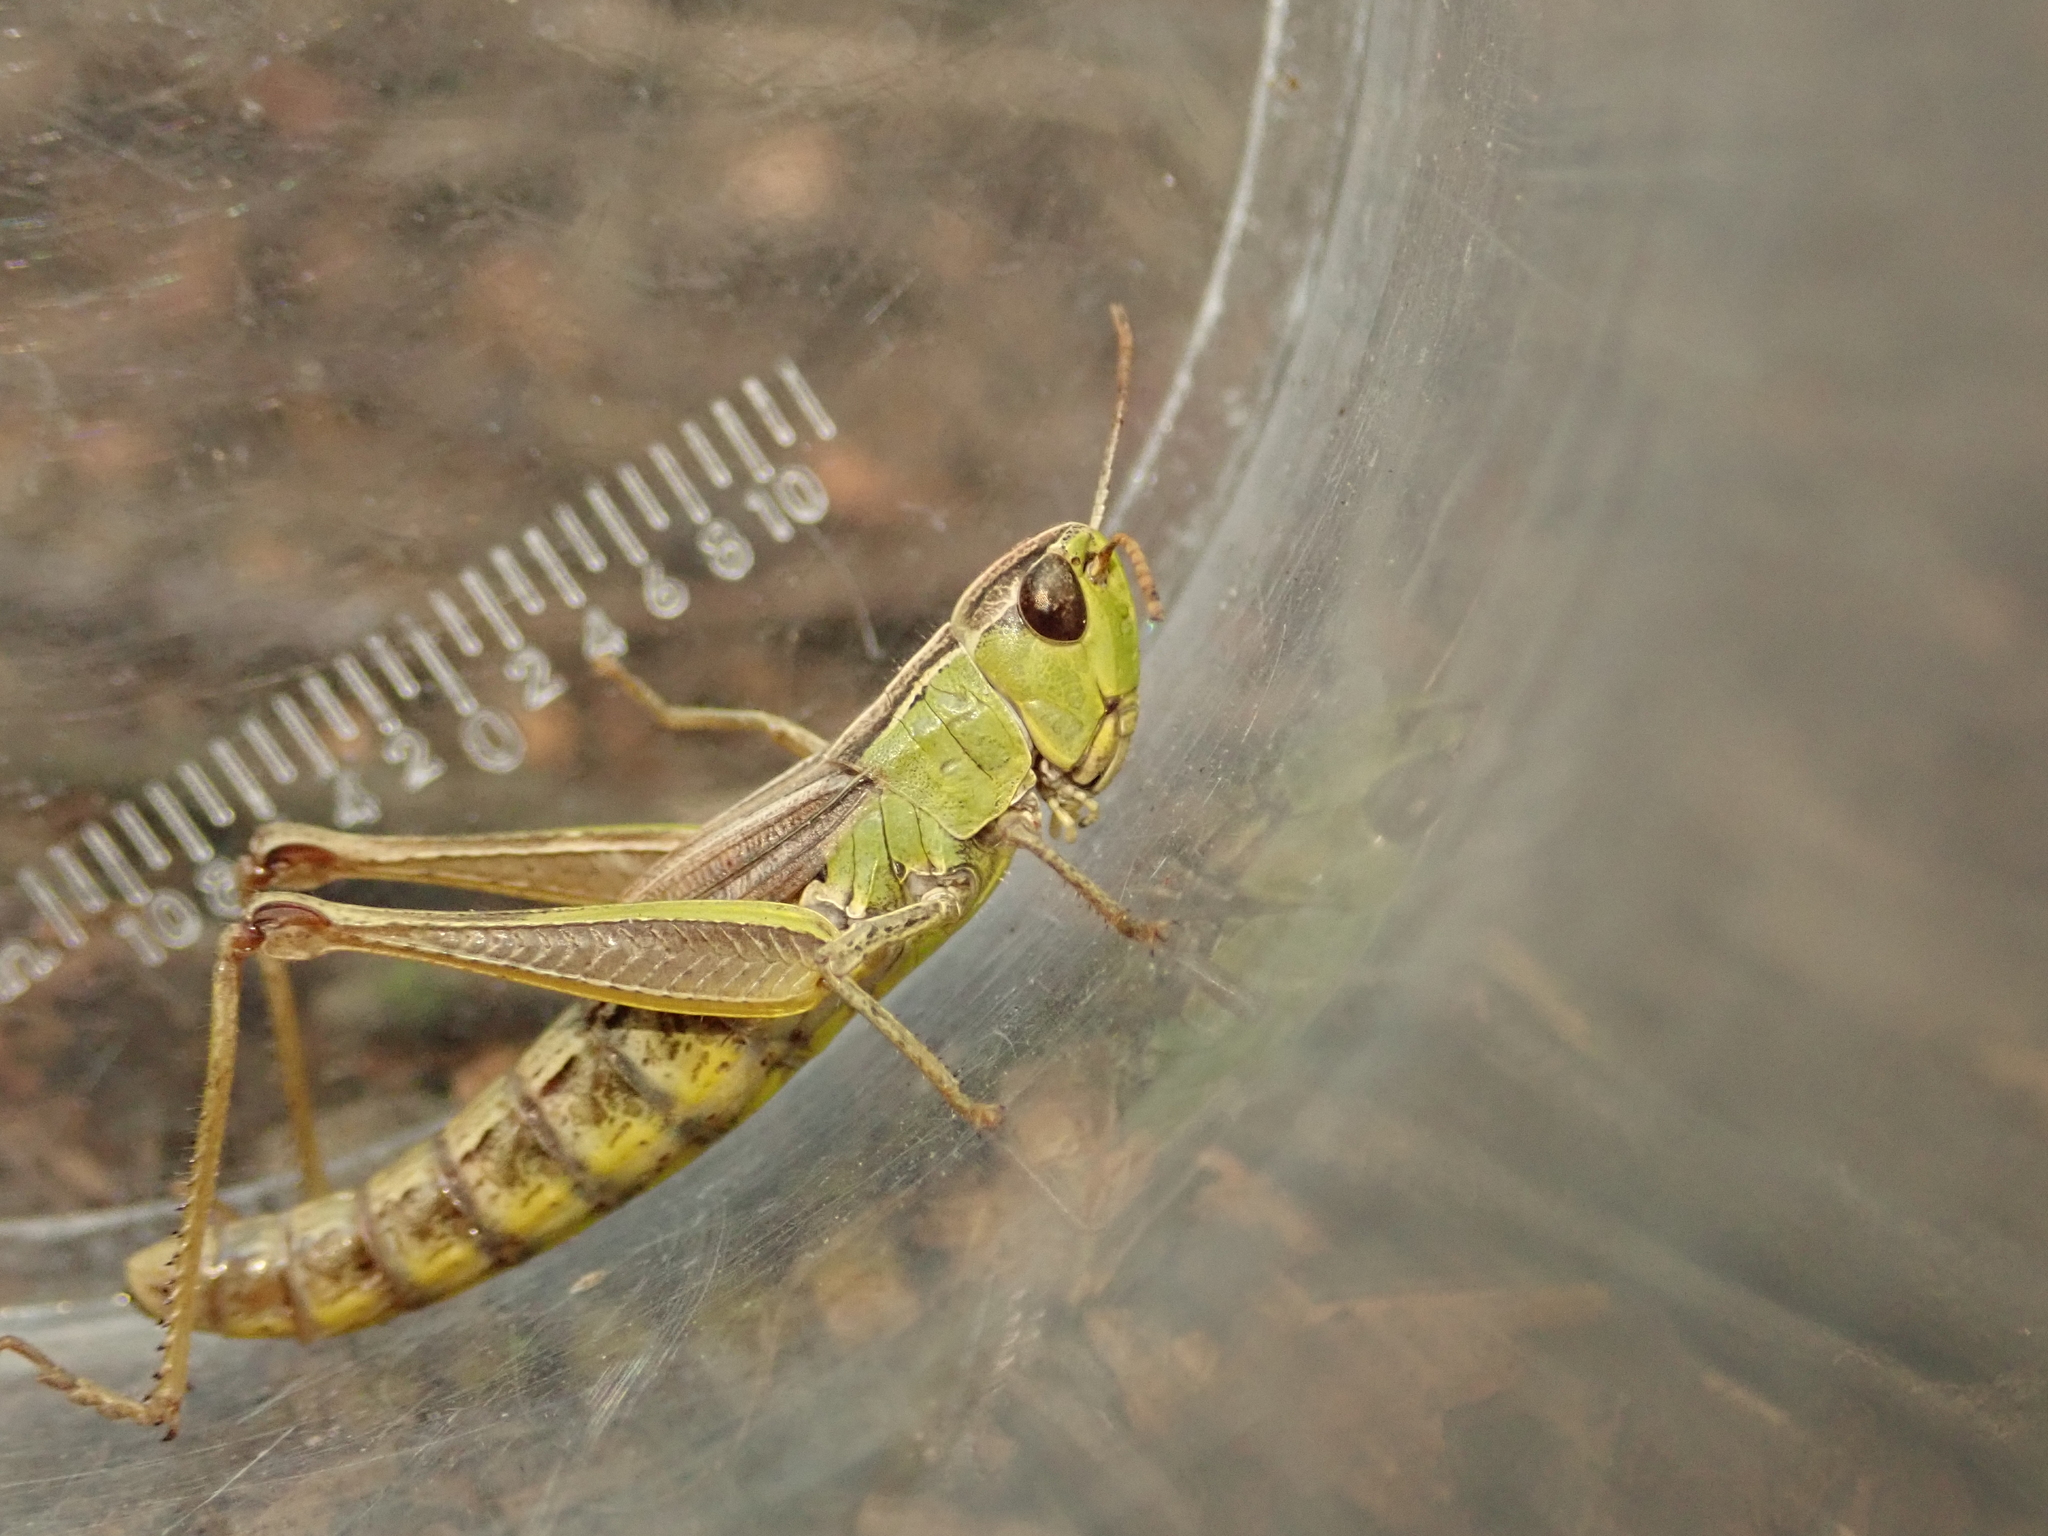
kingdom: Animalia
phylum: Arthropoda
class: Insecta
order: Orthoptera
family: Acrididae
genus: Pseudochorthippus
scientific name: Pseudochorthippus parallelus
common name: Meadow grasshopper
